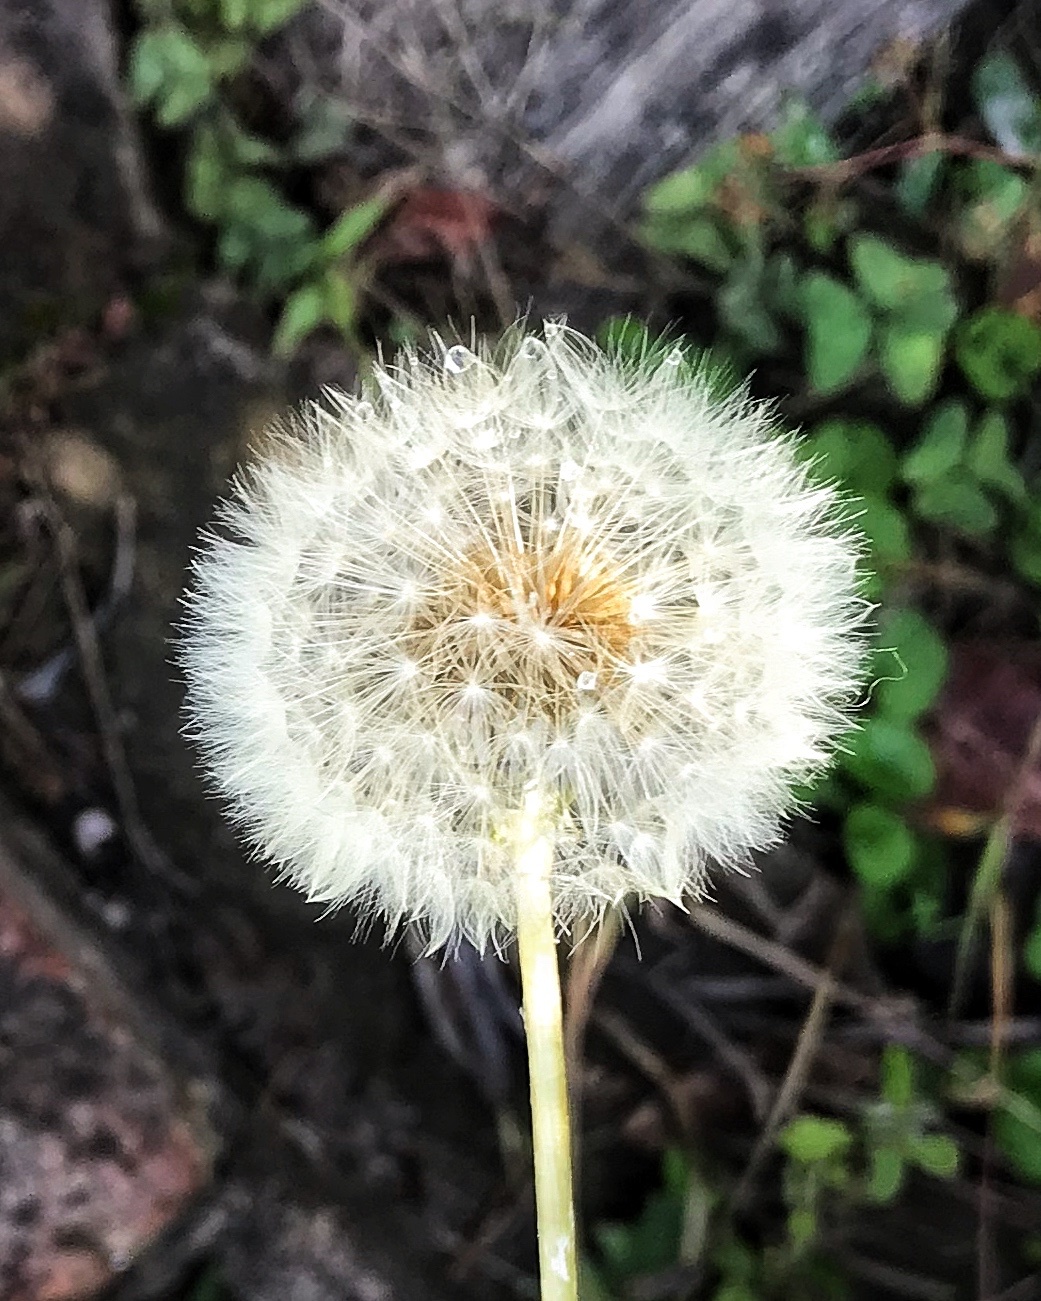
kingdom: Plantae
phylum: Tracheophyta
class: Magnoliopsida
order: Asterales
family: Asteraceae
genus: Taraxacum
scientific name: Taraxacum officinale
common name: Common dandelion
